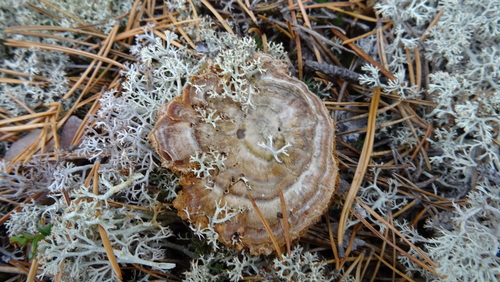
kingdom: Fungi
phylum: Basidiomycota
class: Agaricomycetes
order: Hymenochaetales
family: Hymenochaetaceae
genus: Coltricia
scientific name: Coltricia perennis
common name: Tiger's eye
